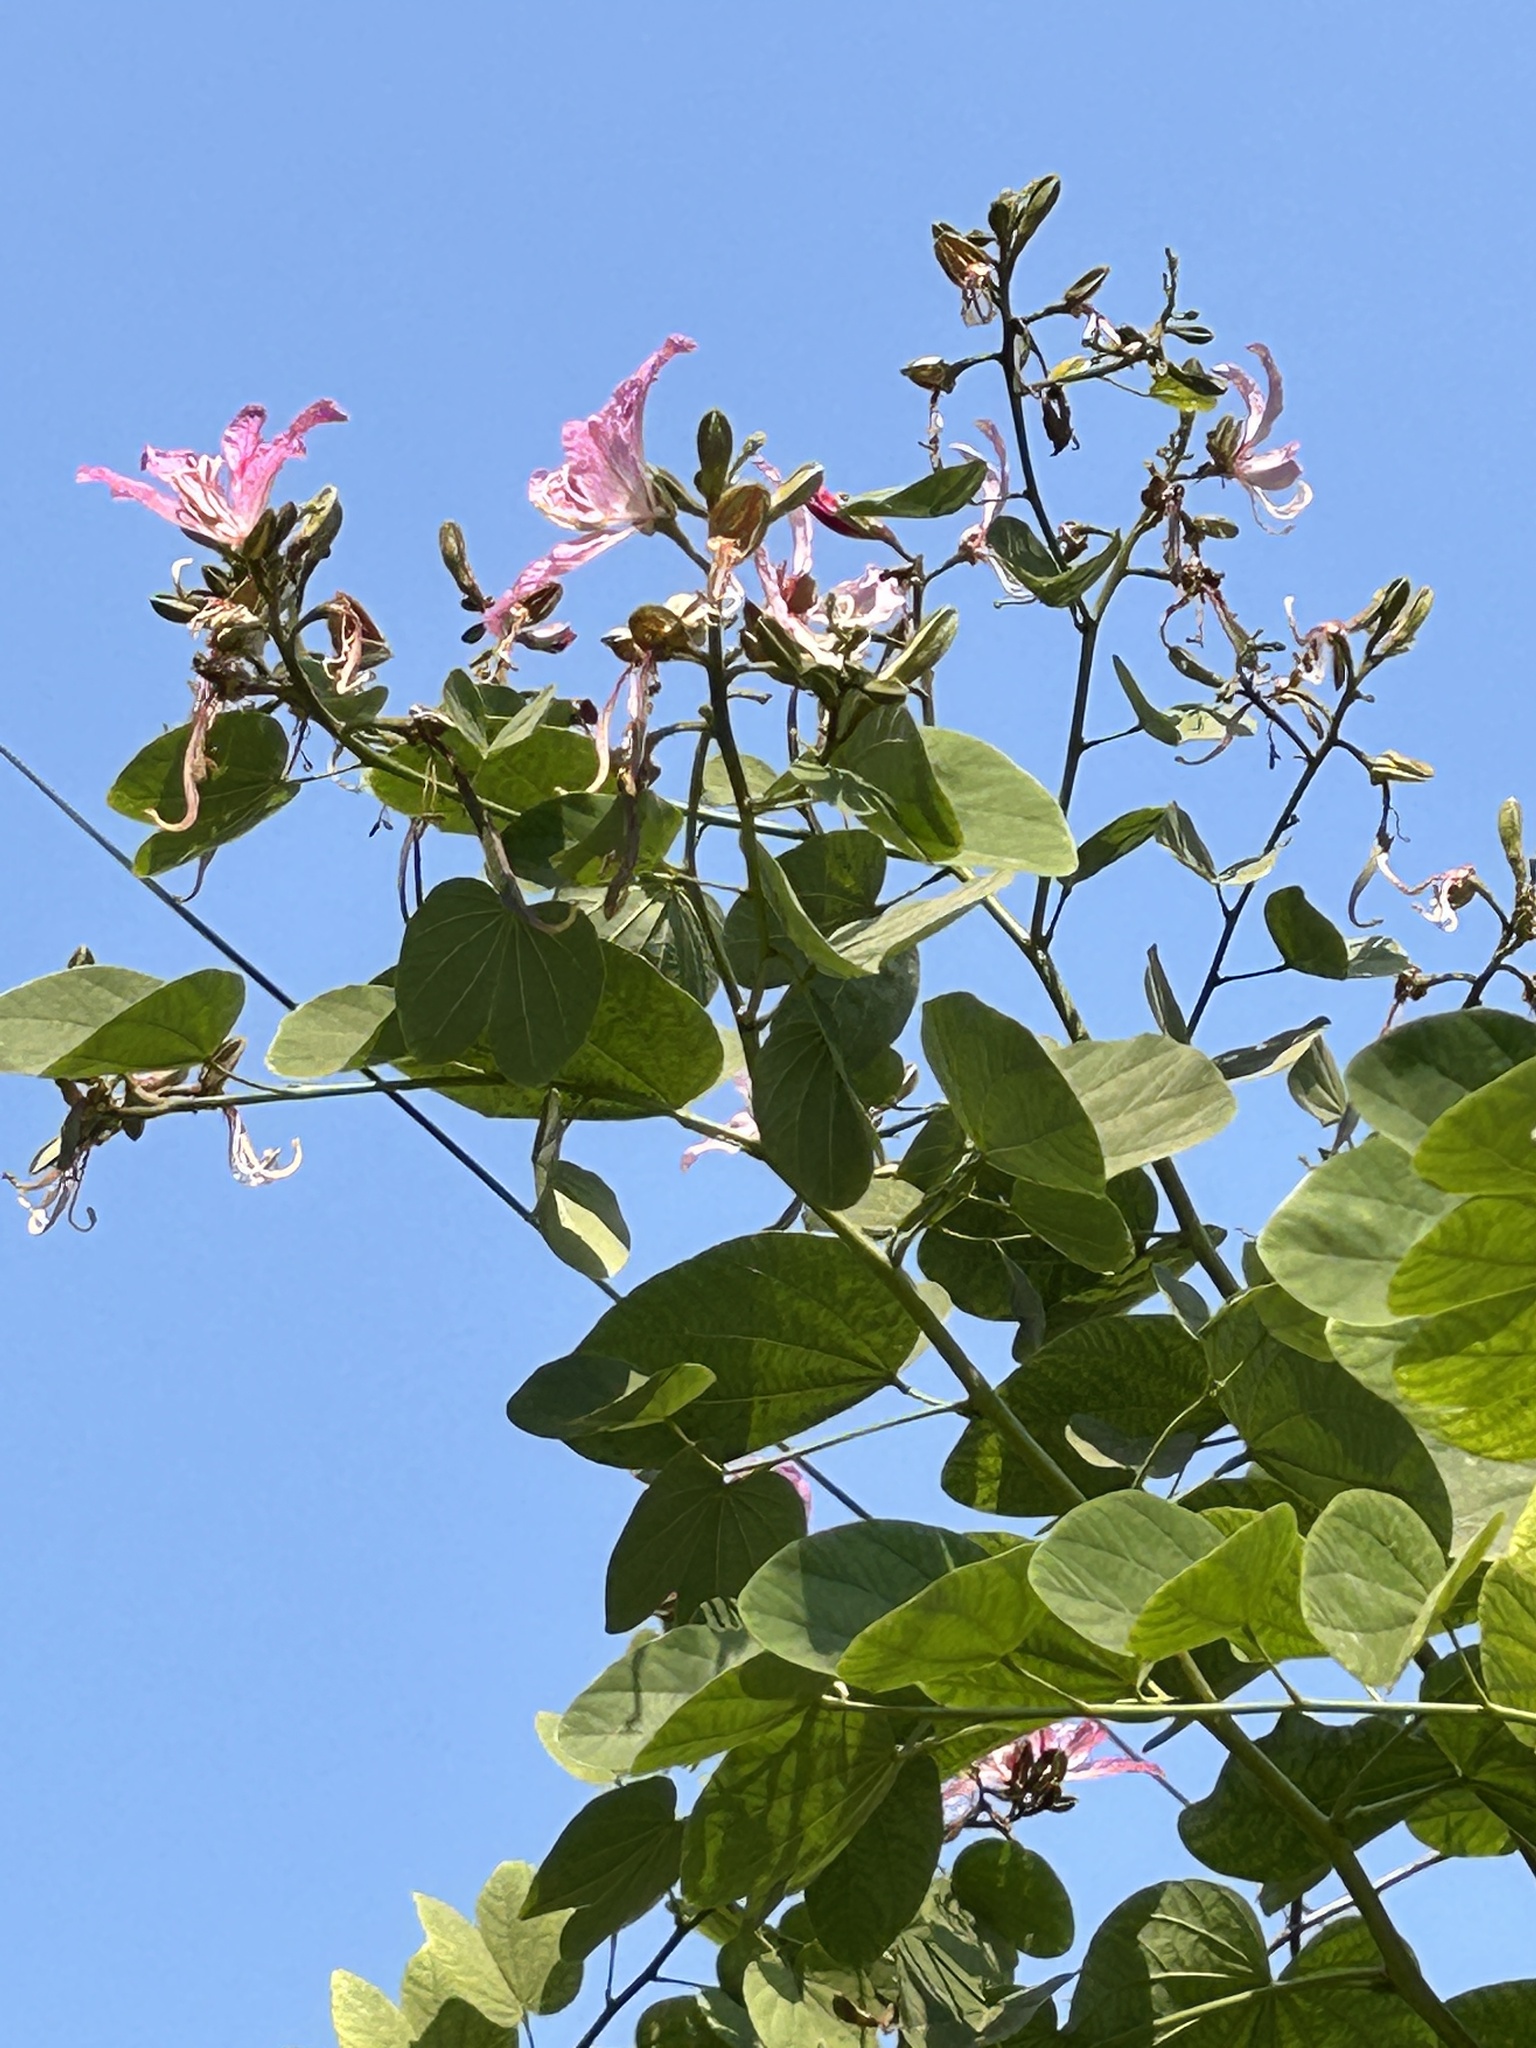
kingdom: Plantae
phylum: Tracheophyta
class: Magnoliopsida
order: Fabales
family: Fabaceae
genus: Bauhinia
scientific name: Bauhinia variegata
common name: Mountain ebony
